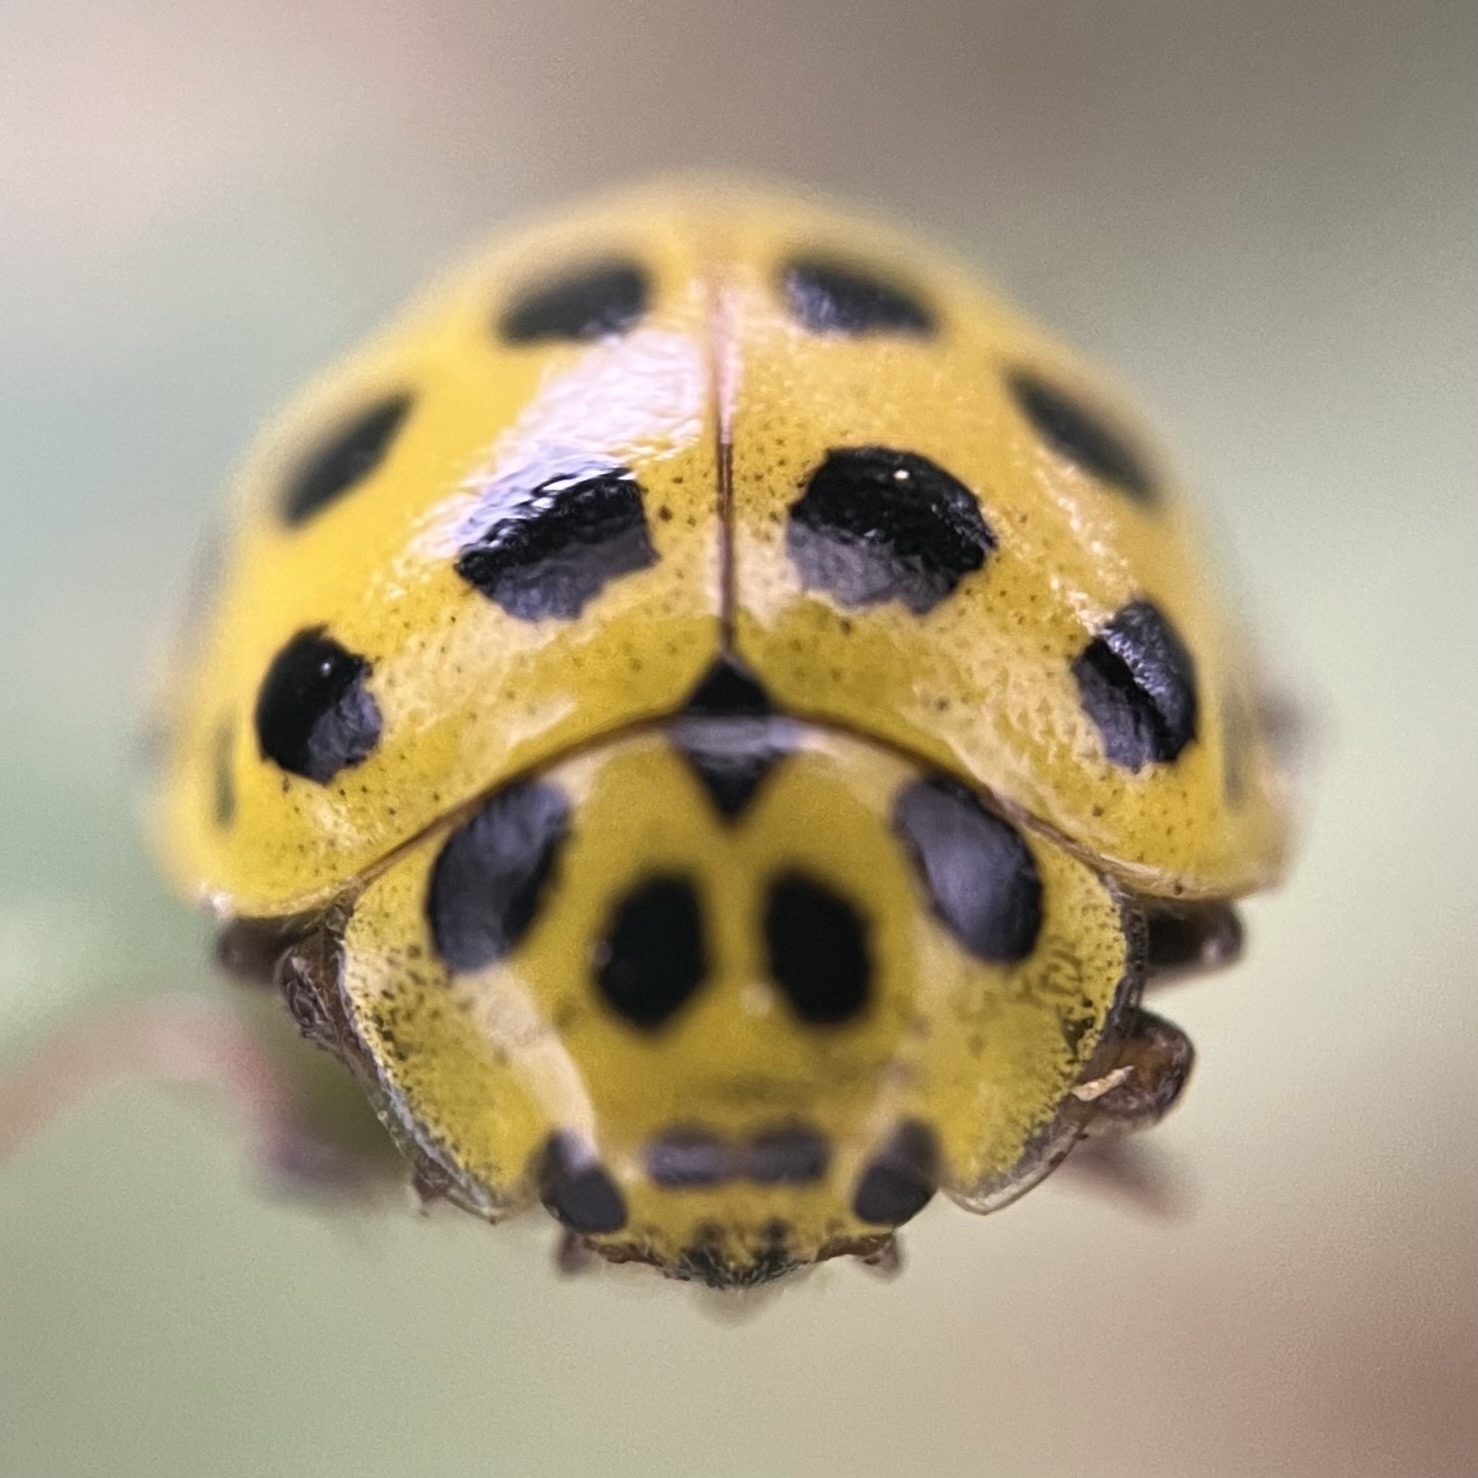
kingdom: Animalia
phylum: Arthropoda
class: Insecta
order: Coleoptera
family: Coccinellidae
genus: Psyllobora
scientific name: Psyllobora vigintiduopunctata
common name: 22-spot ladybird
